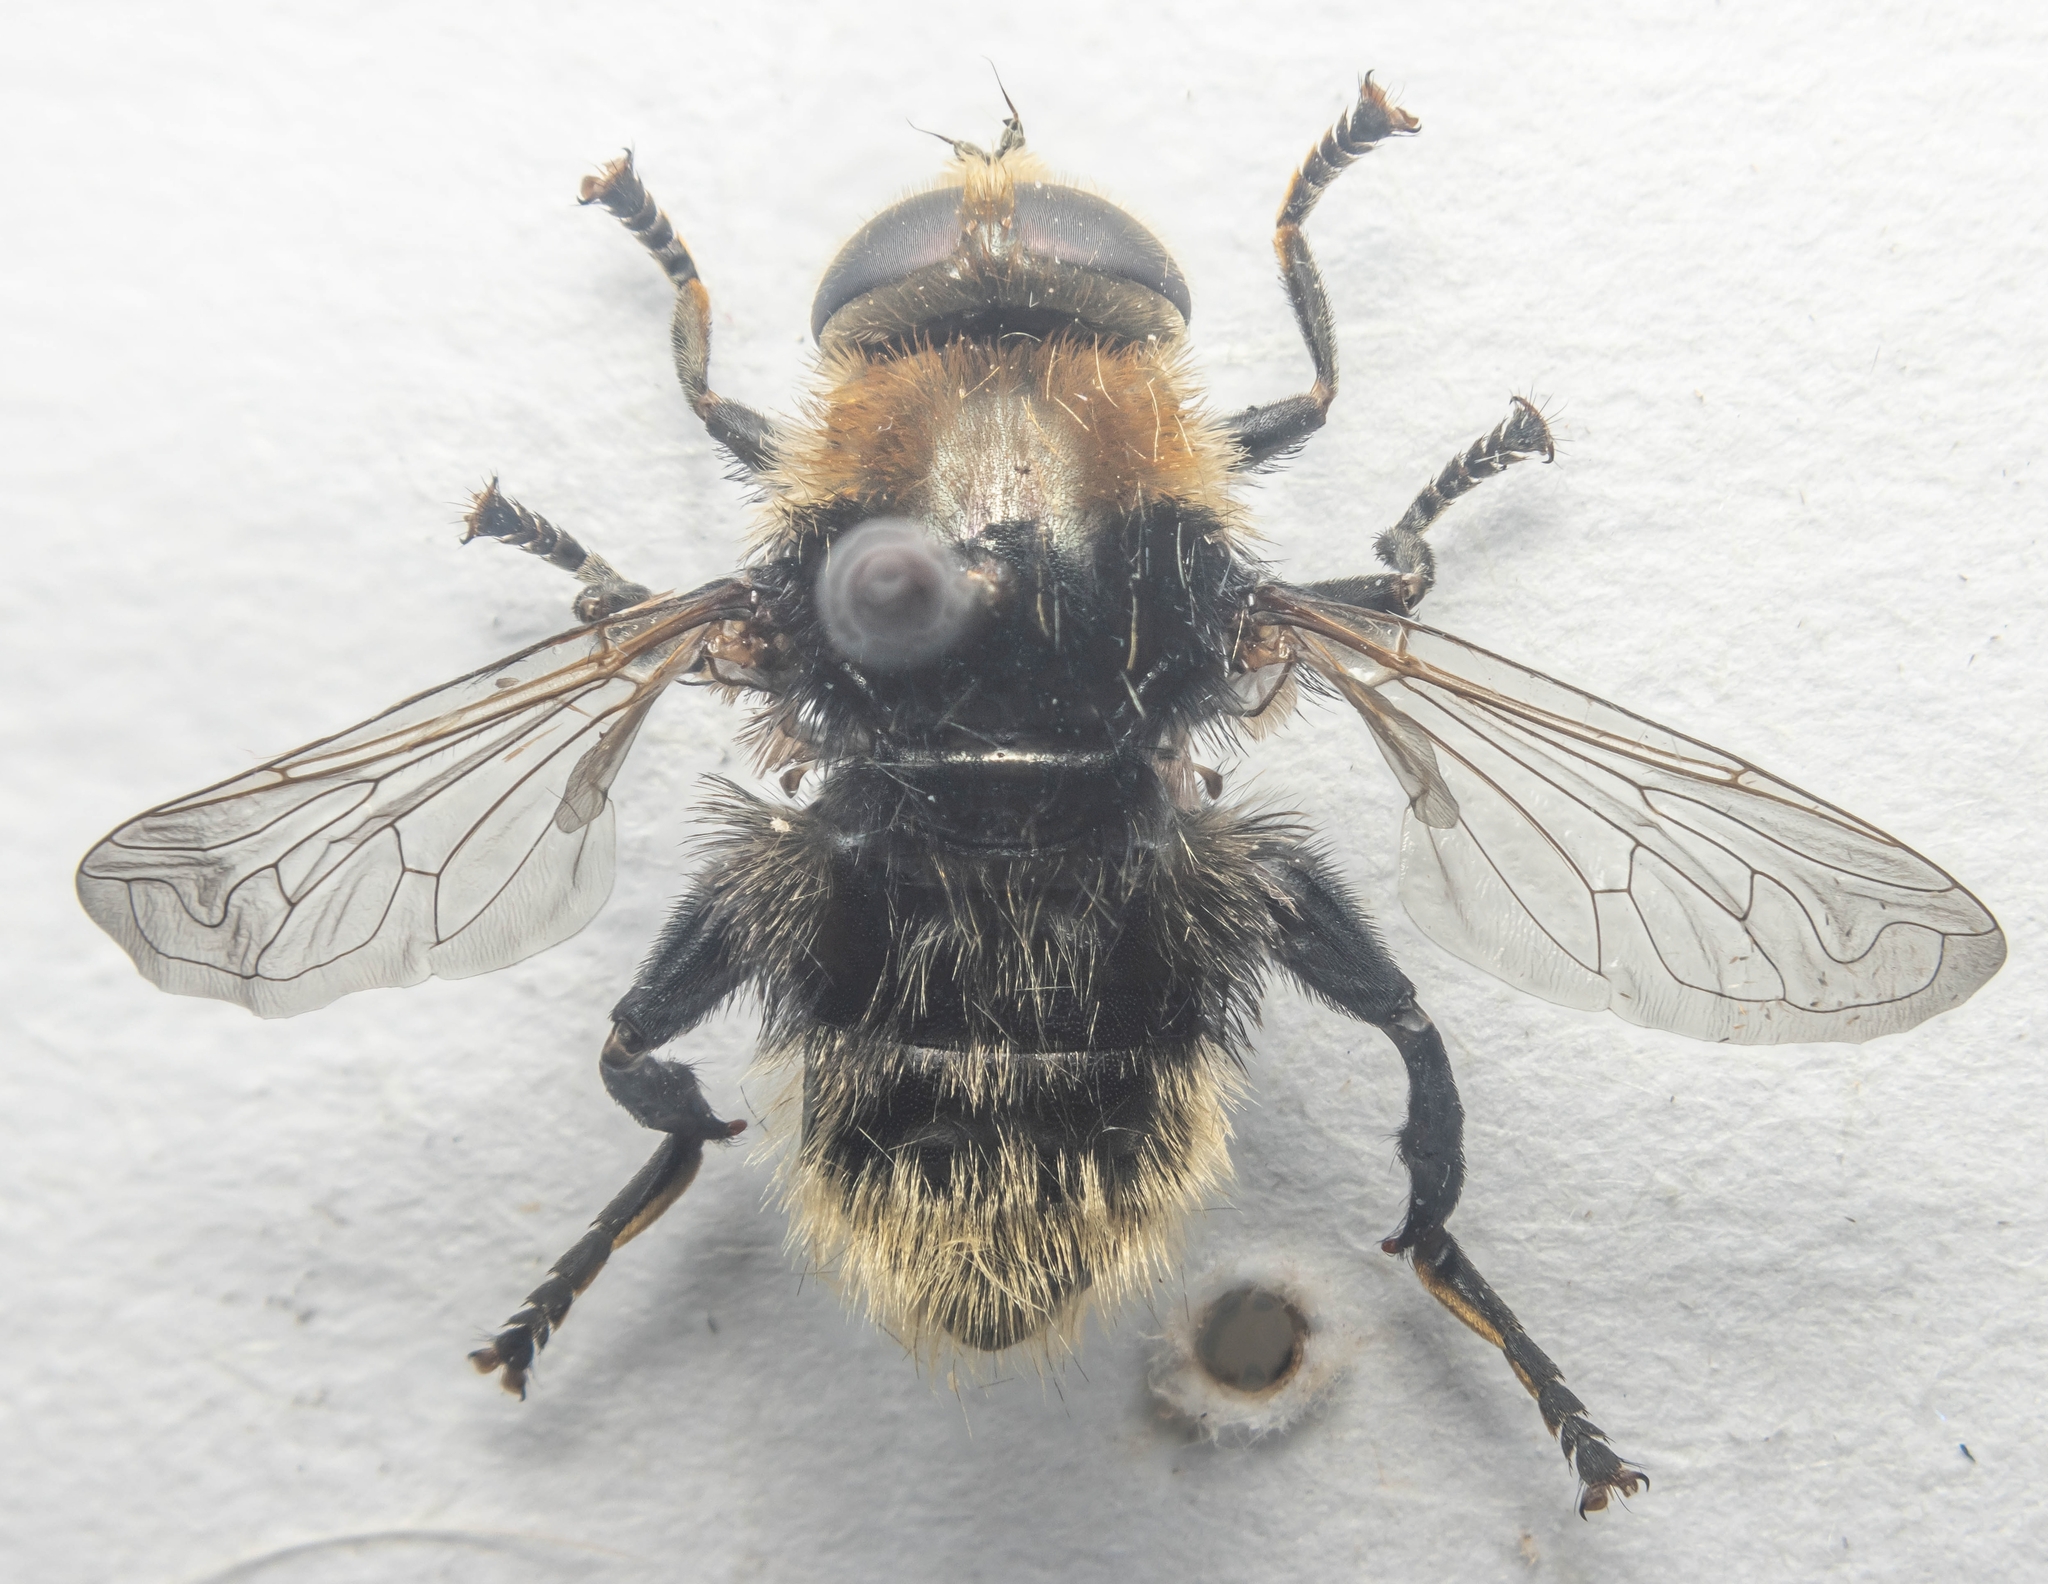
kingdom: Animalia
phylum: Arthropoda
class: Insecta
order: Diptera
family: Syrphidae
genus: Merodon
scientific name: Merodon equestris
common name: Greater bulb-fly
